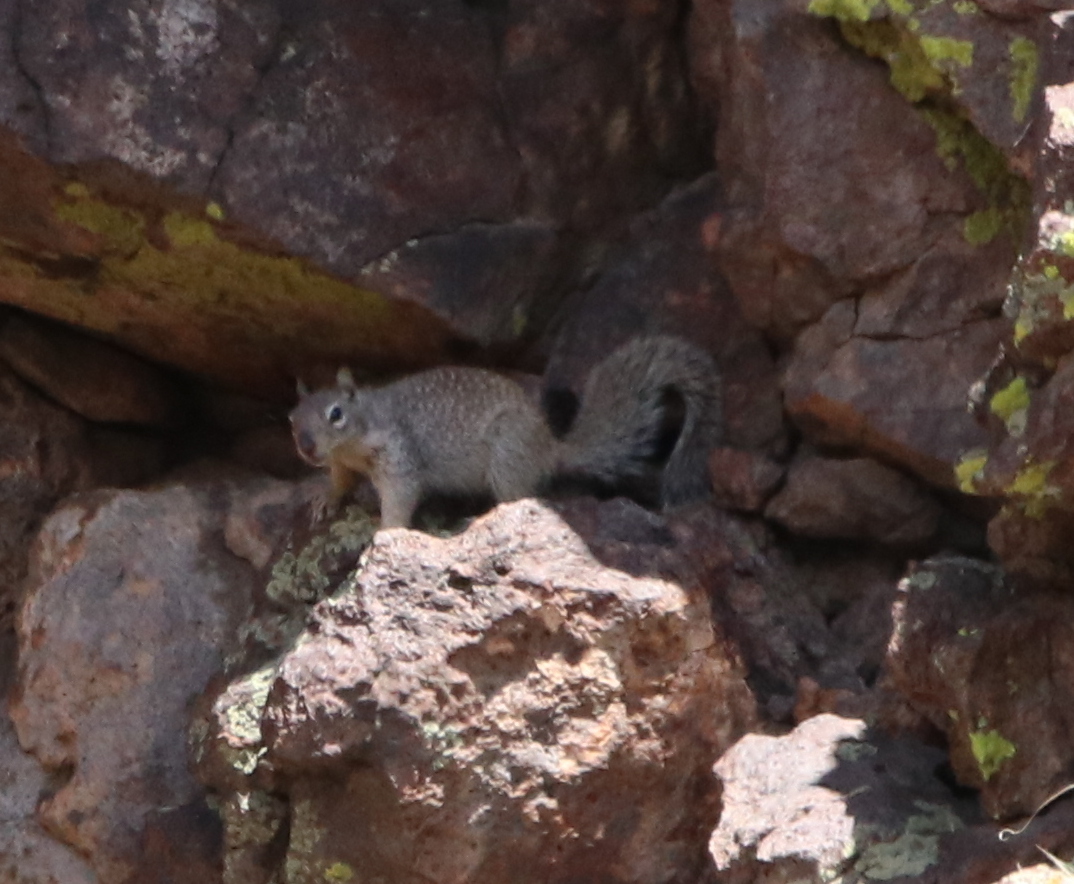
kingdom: Animalia
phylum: Chordata
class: Mammalia
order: Rodentia
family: Sciuridae
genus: Otospermophilus
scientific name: Otospermophilus variegatus
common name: Rock squirrel
